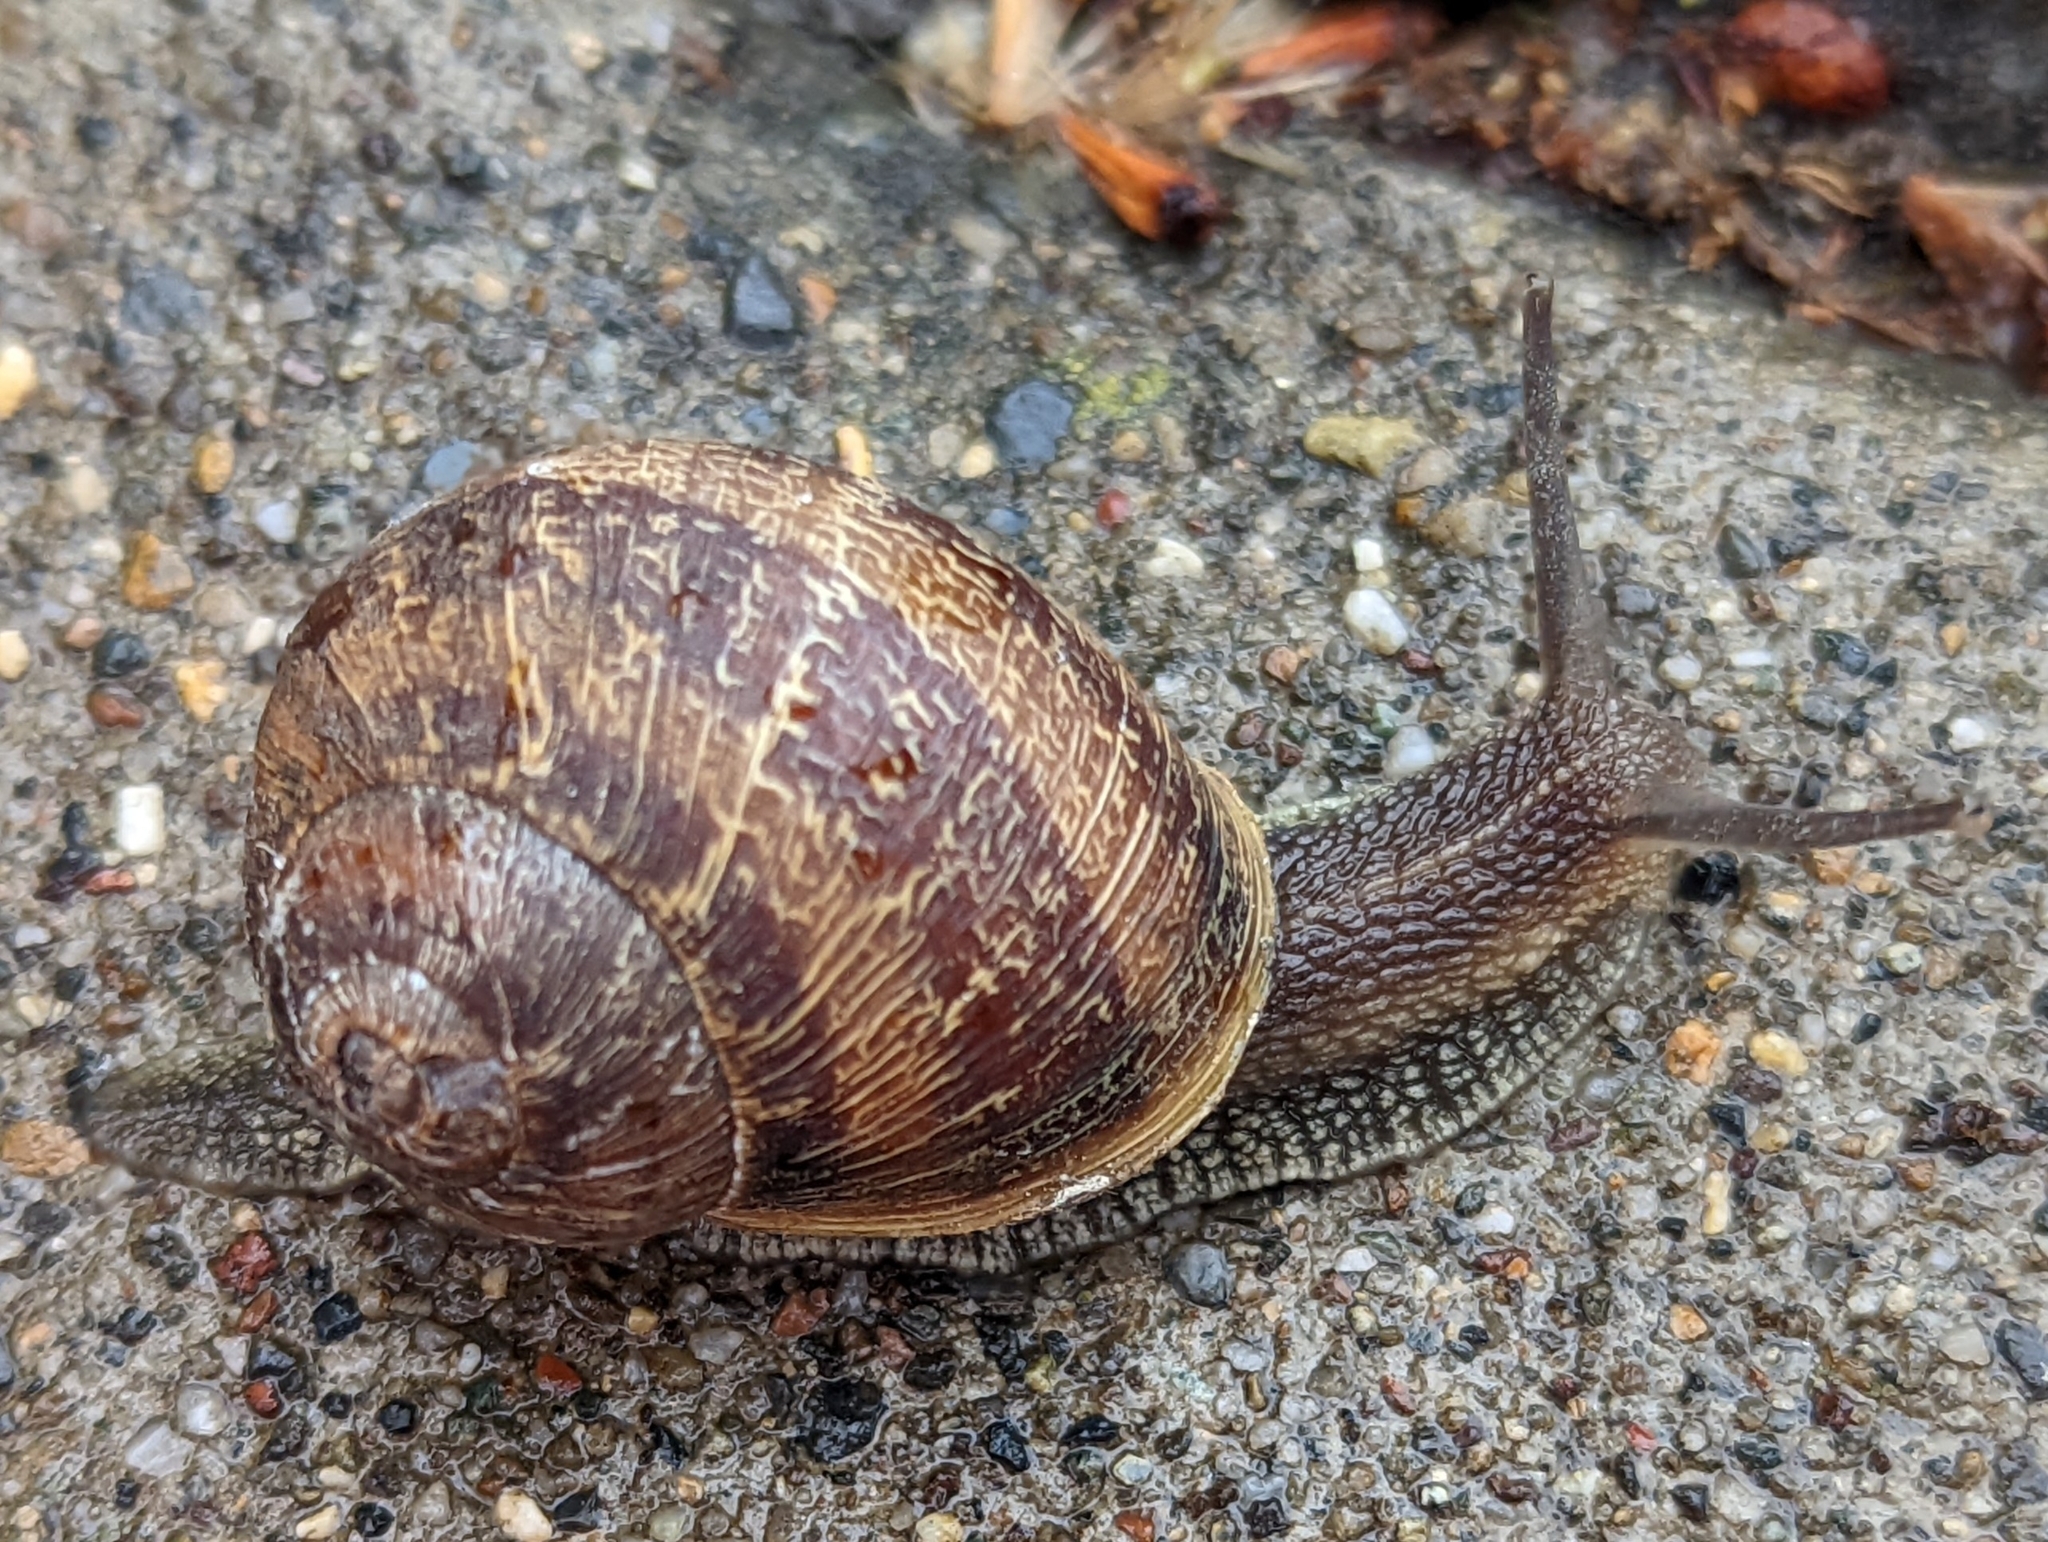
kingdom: Animalia
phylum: Mollusca
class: Gastropoda
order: Stylommatophora
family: Helicidae
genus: Cornu
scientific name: Cornu aspersum
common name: Brown garden snail
